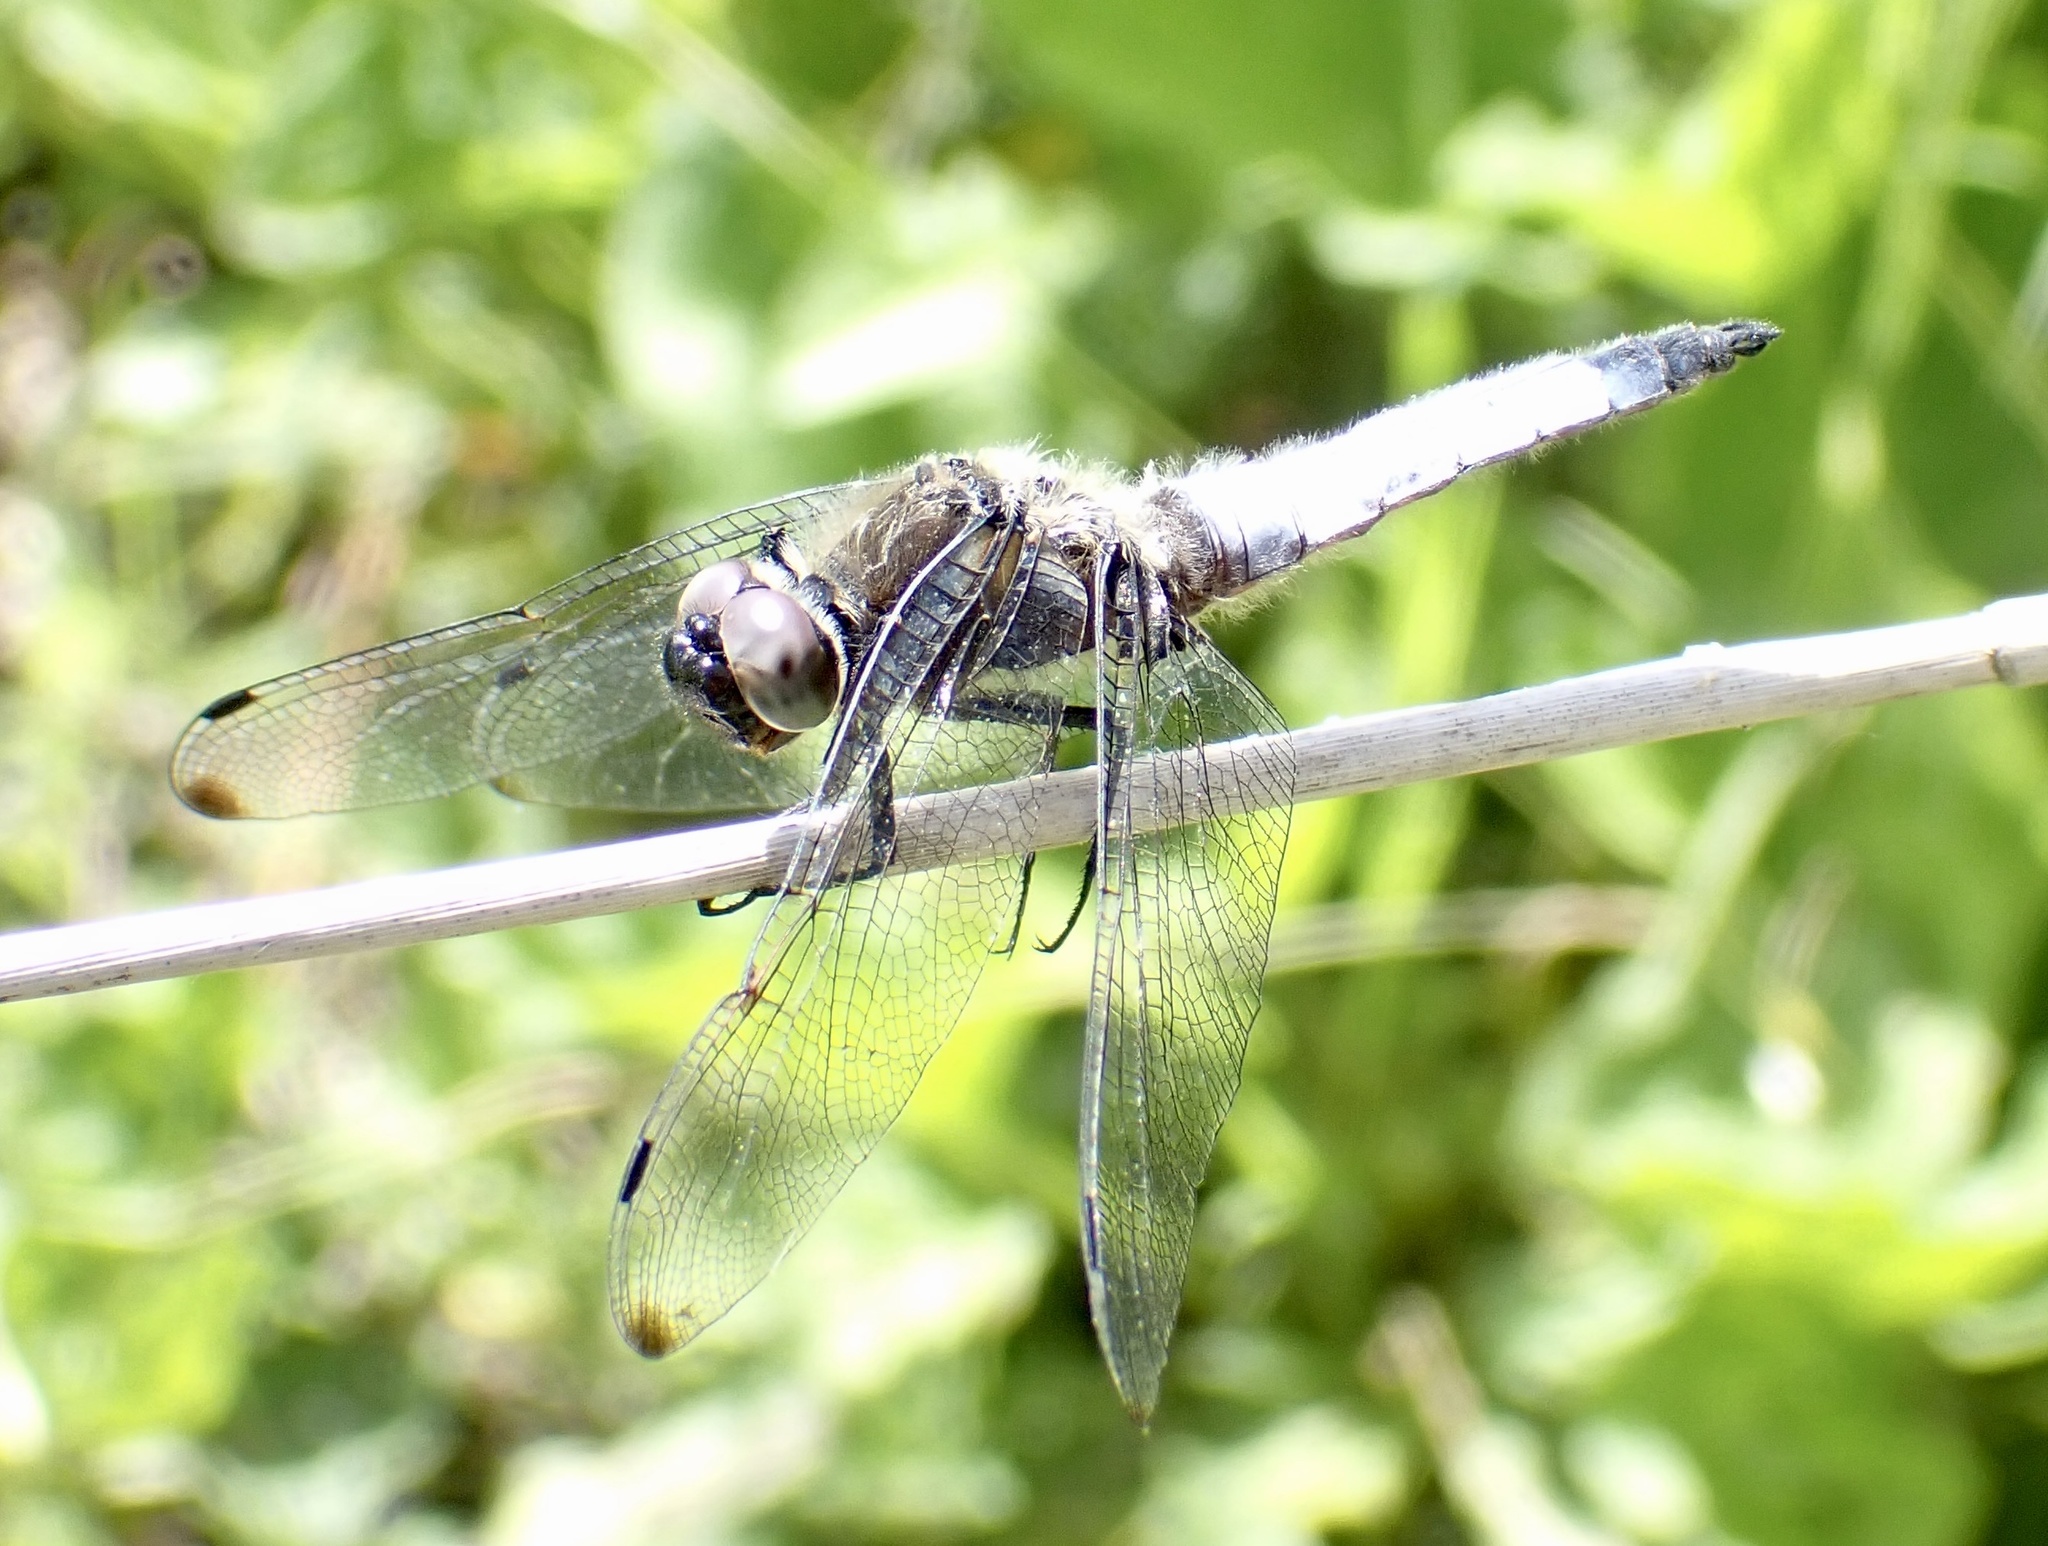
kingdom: Animalia
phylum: Arthropoda
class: Insecta
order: Odonata
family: Libellulidae
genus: Libellula
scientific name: Libellula fulva
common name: Blue chaser
